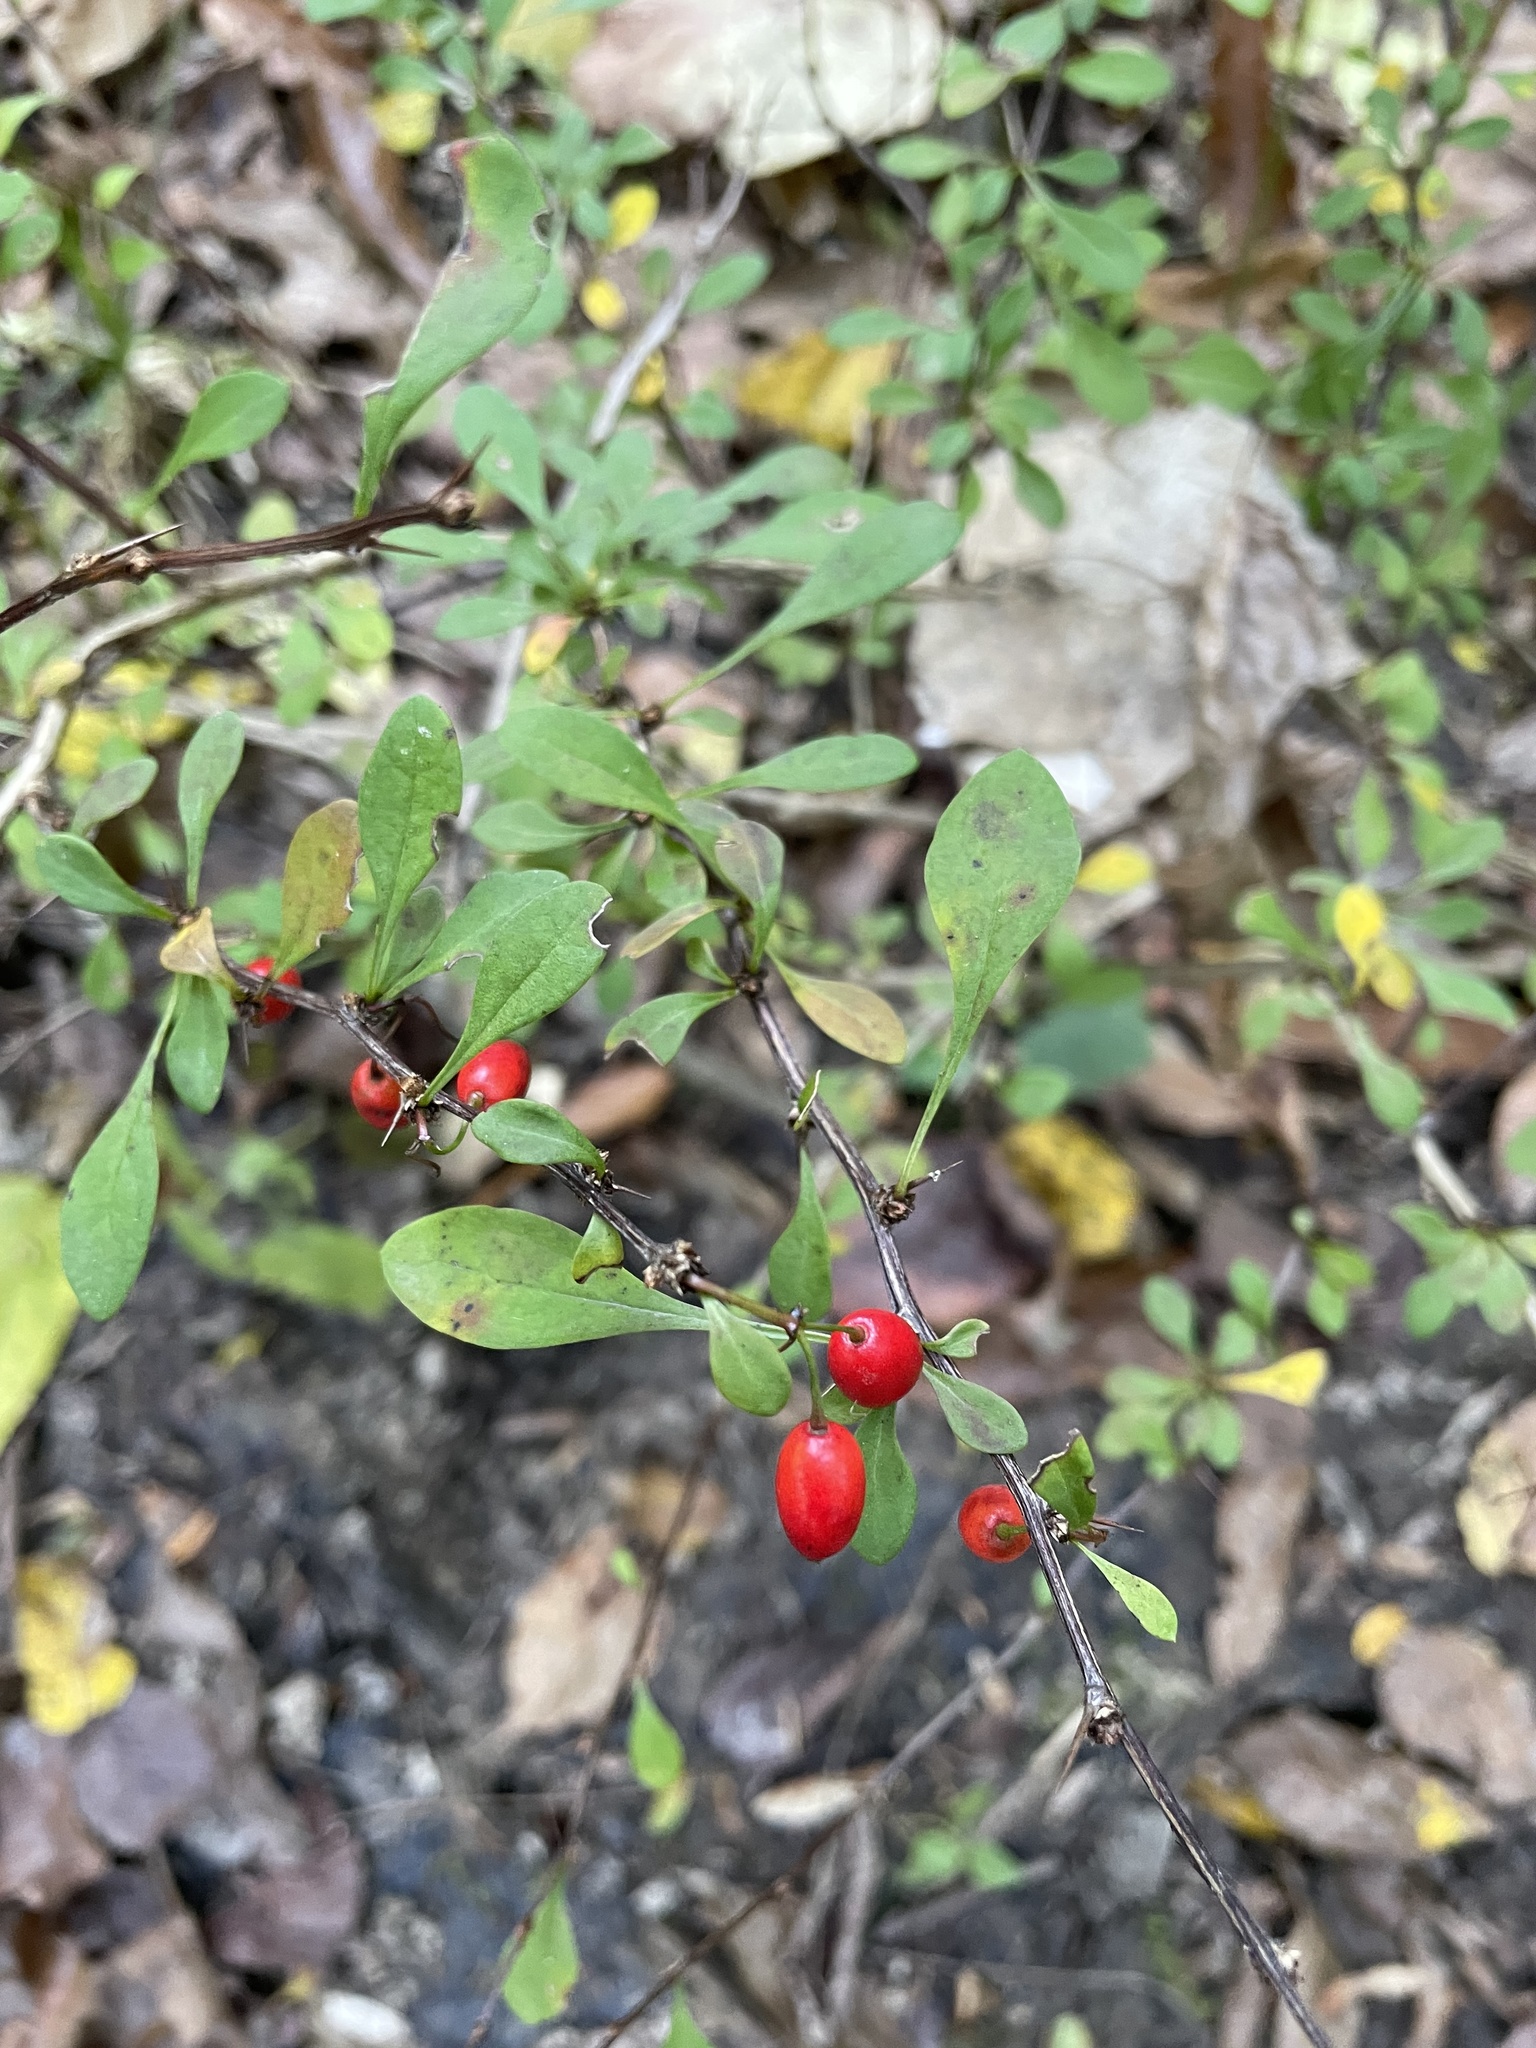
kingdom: Plantae
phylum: Tracheophyta
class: Magnoliopsida
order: Ranunculales
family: Berberidaceae
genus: Berberis
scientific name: Berberis thunbergii
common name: Japanese barberry
